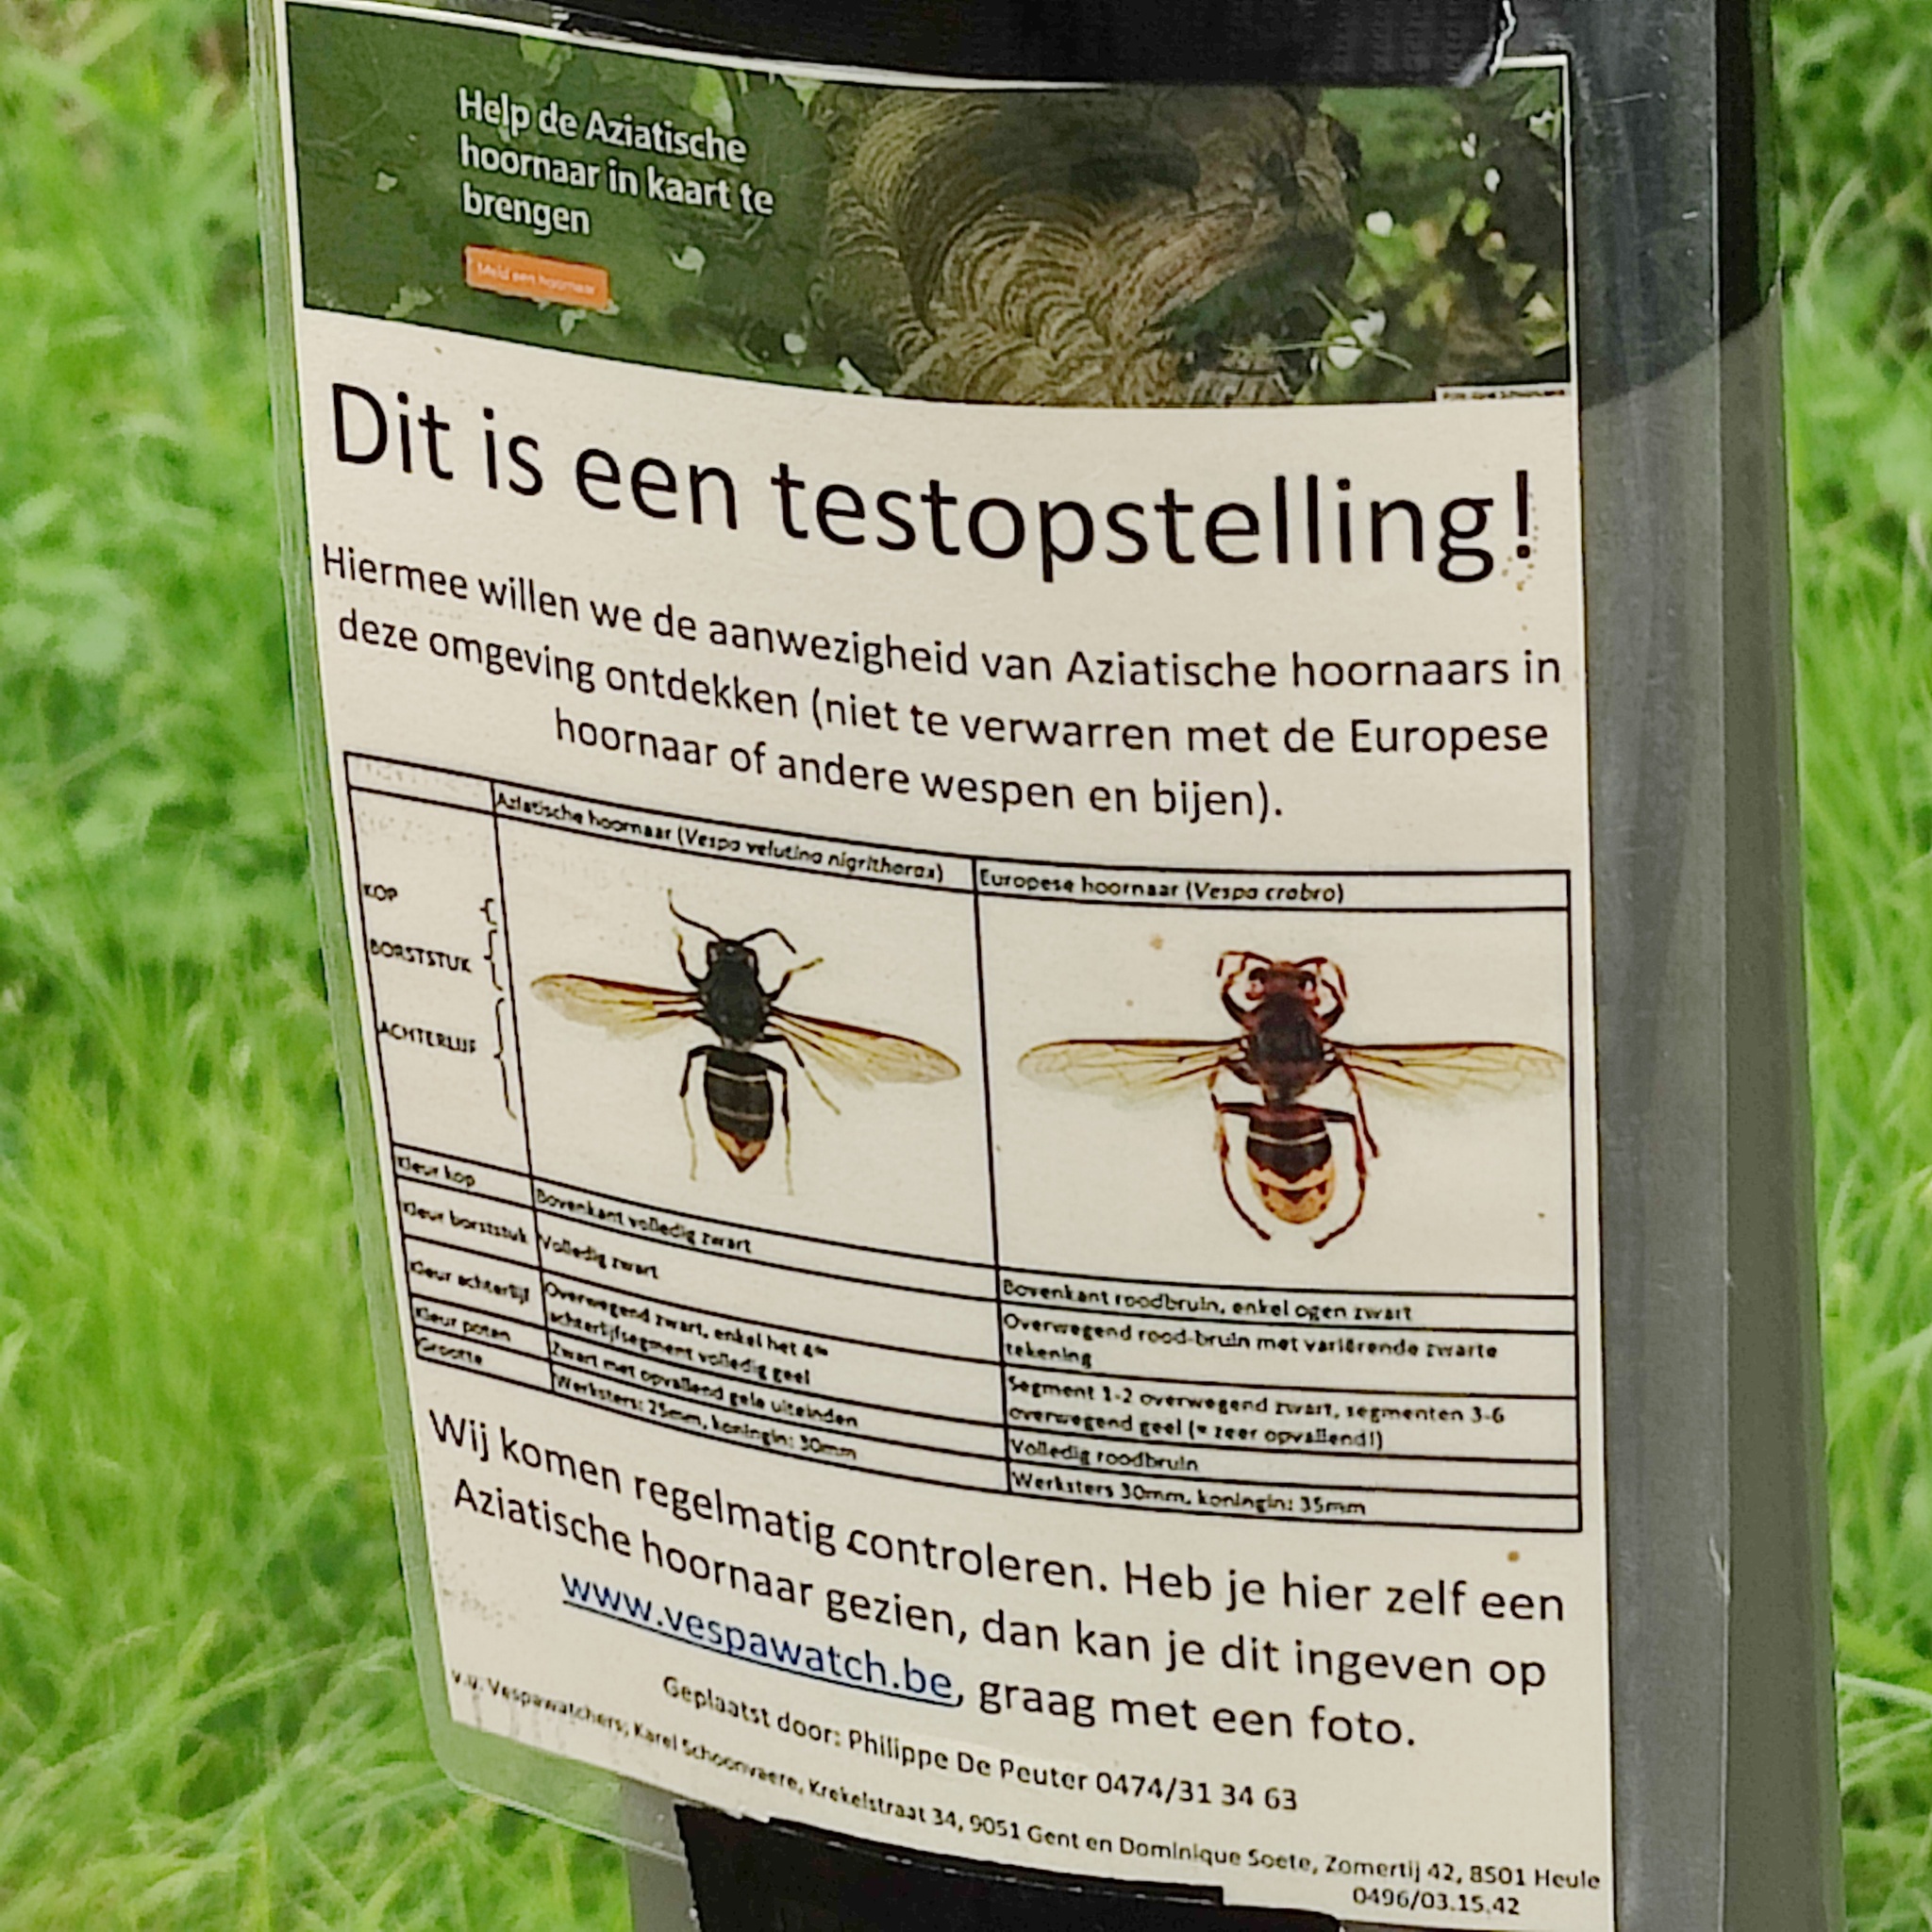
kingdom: Animalia
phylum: Arthropoda
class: Insecta
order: Hymenoptera
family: Vespidae
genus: Vespa
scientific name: Vespa velutina
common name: Asian hornet
